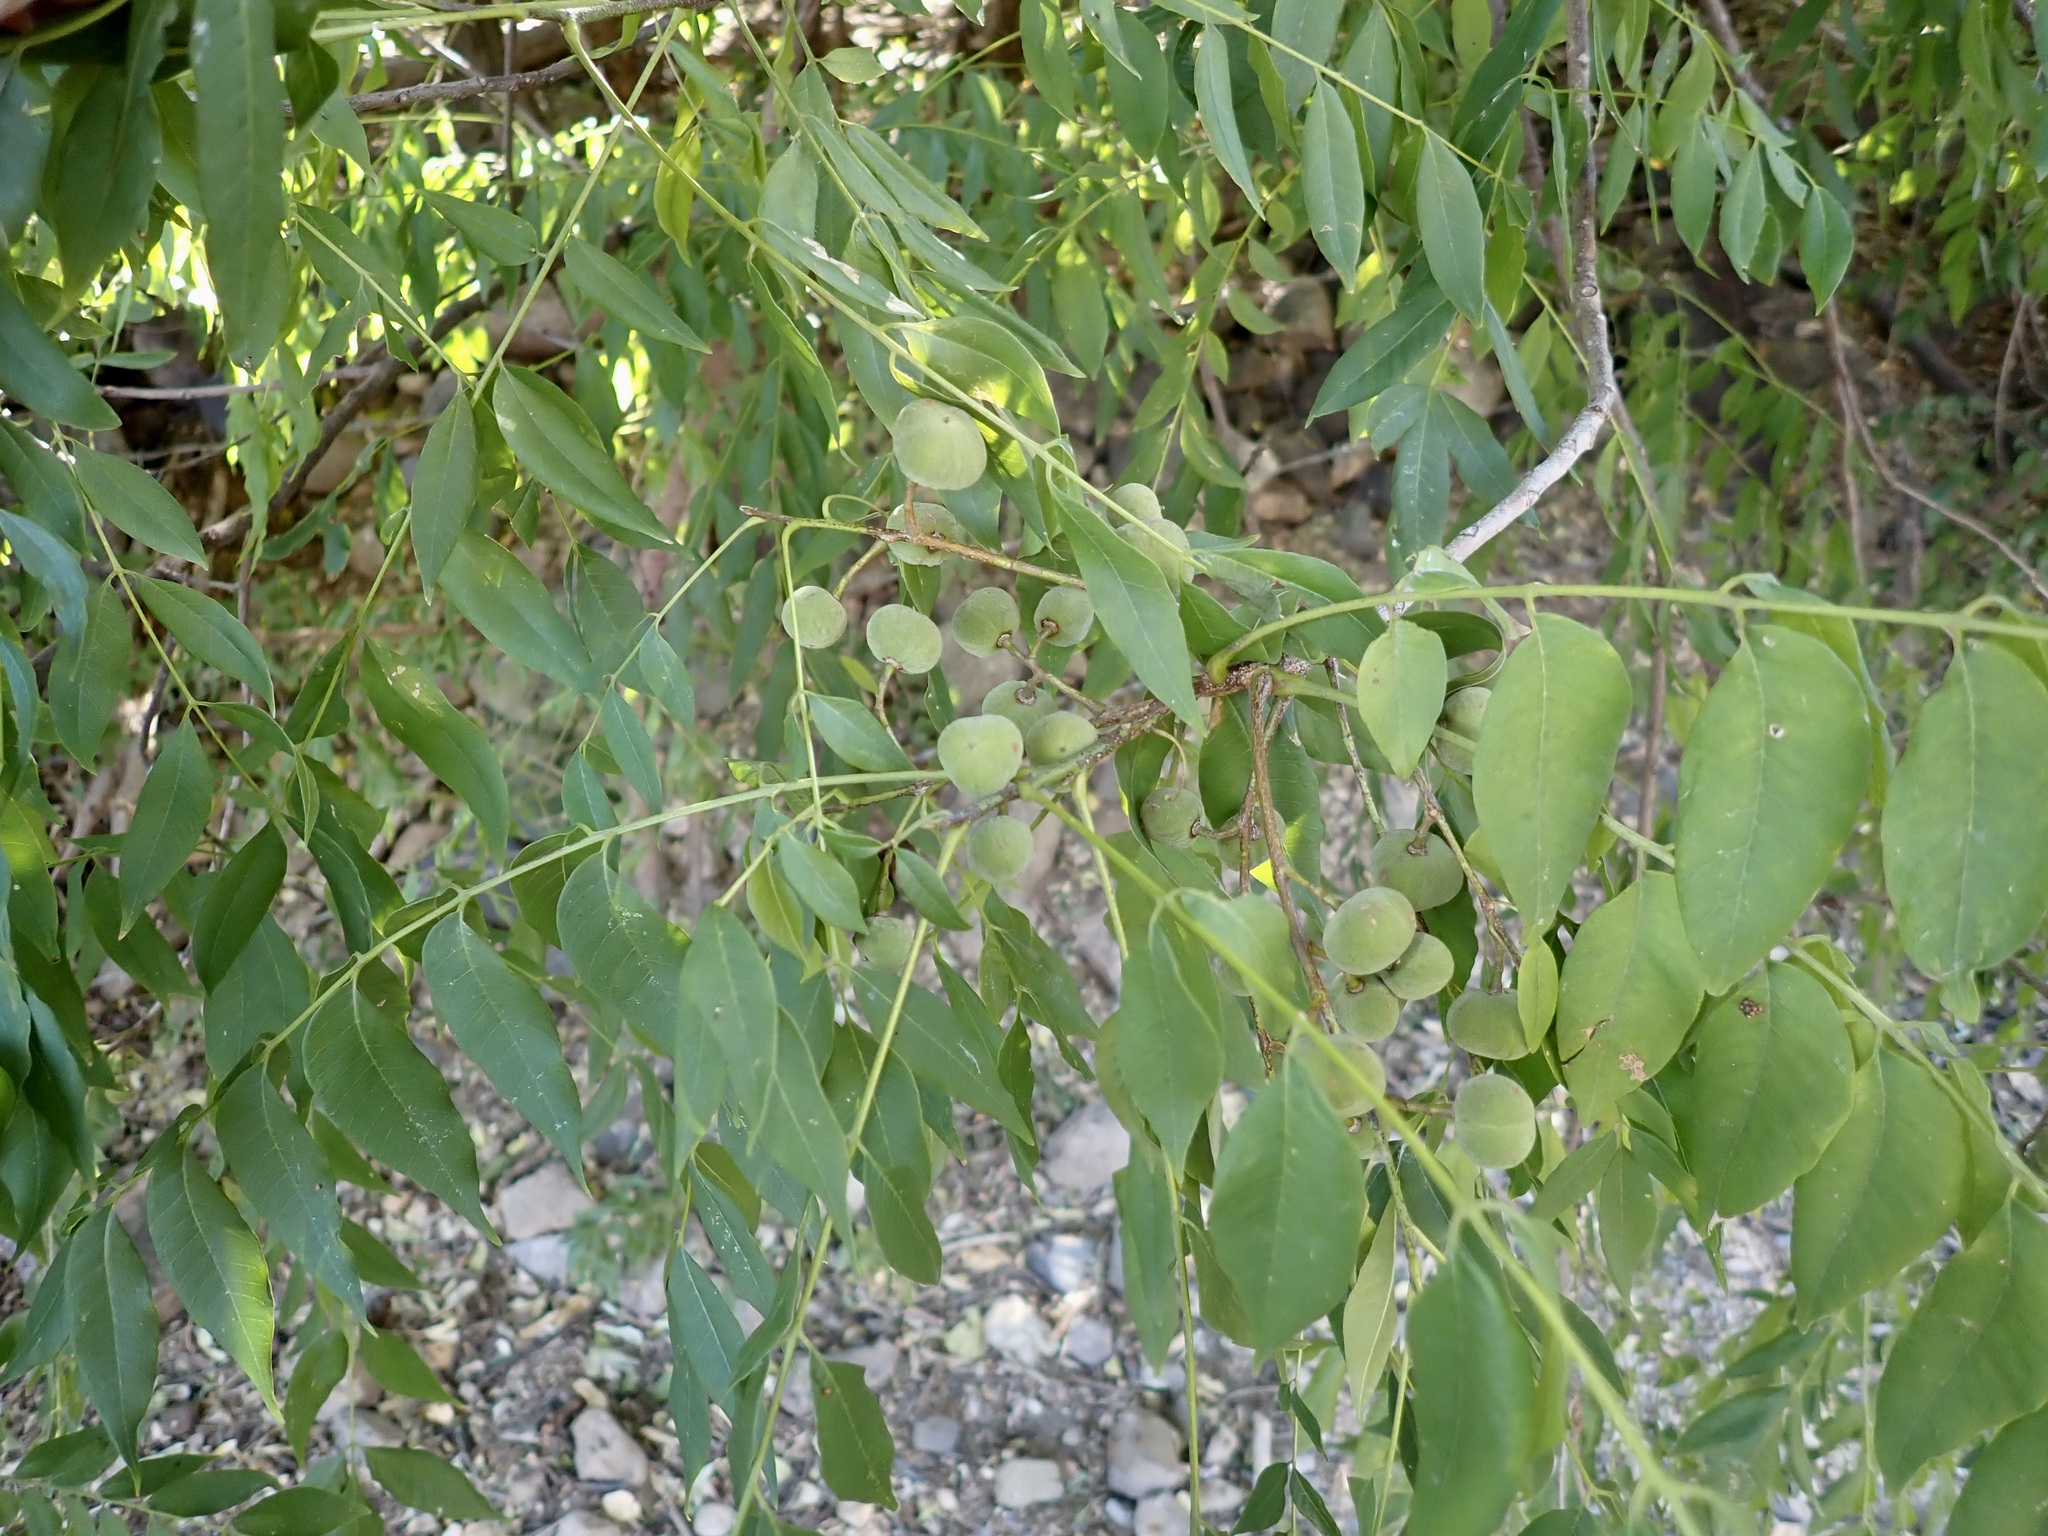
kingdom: Plantae
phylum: Tracheophyta
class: Magnoliopsida
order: Sapindales
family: Meliaceae
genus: Trichilia
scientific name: Trichilia hirta
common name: Red-cedar
